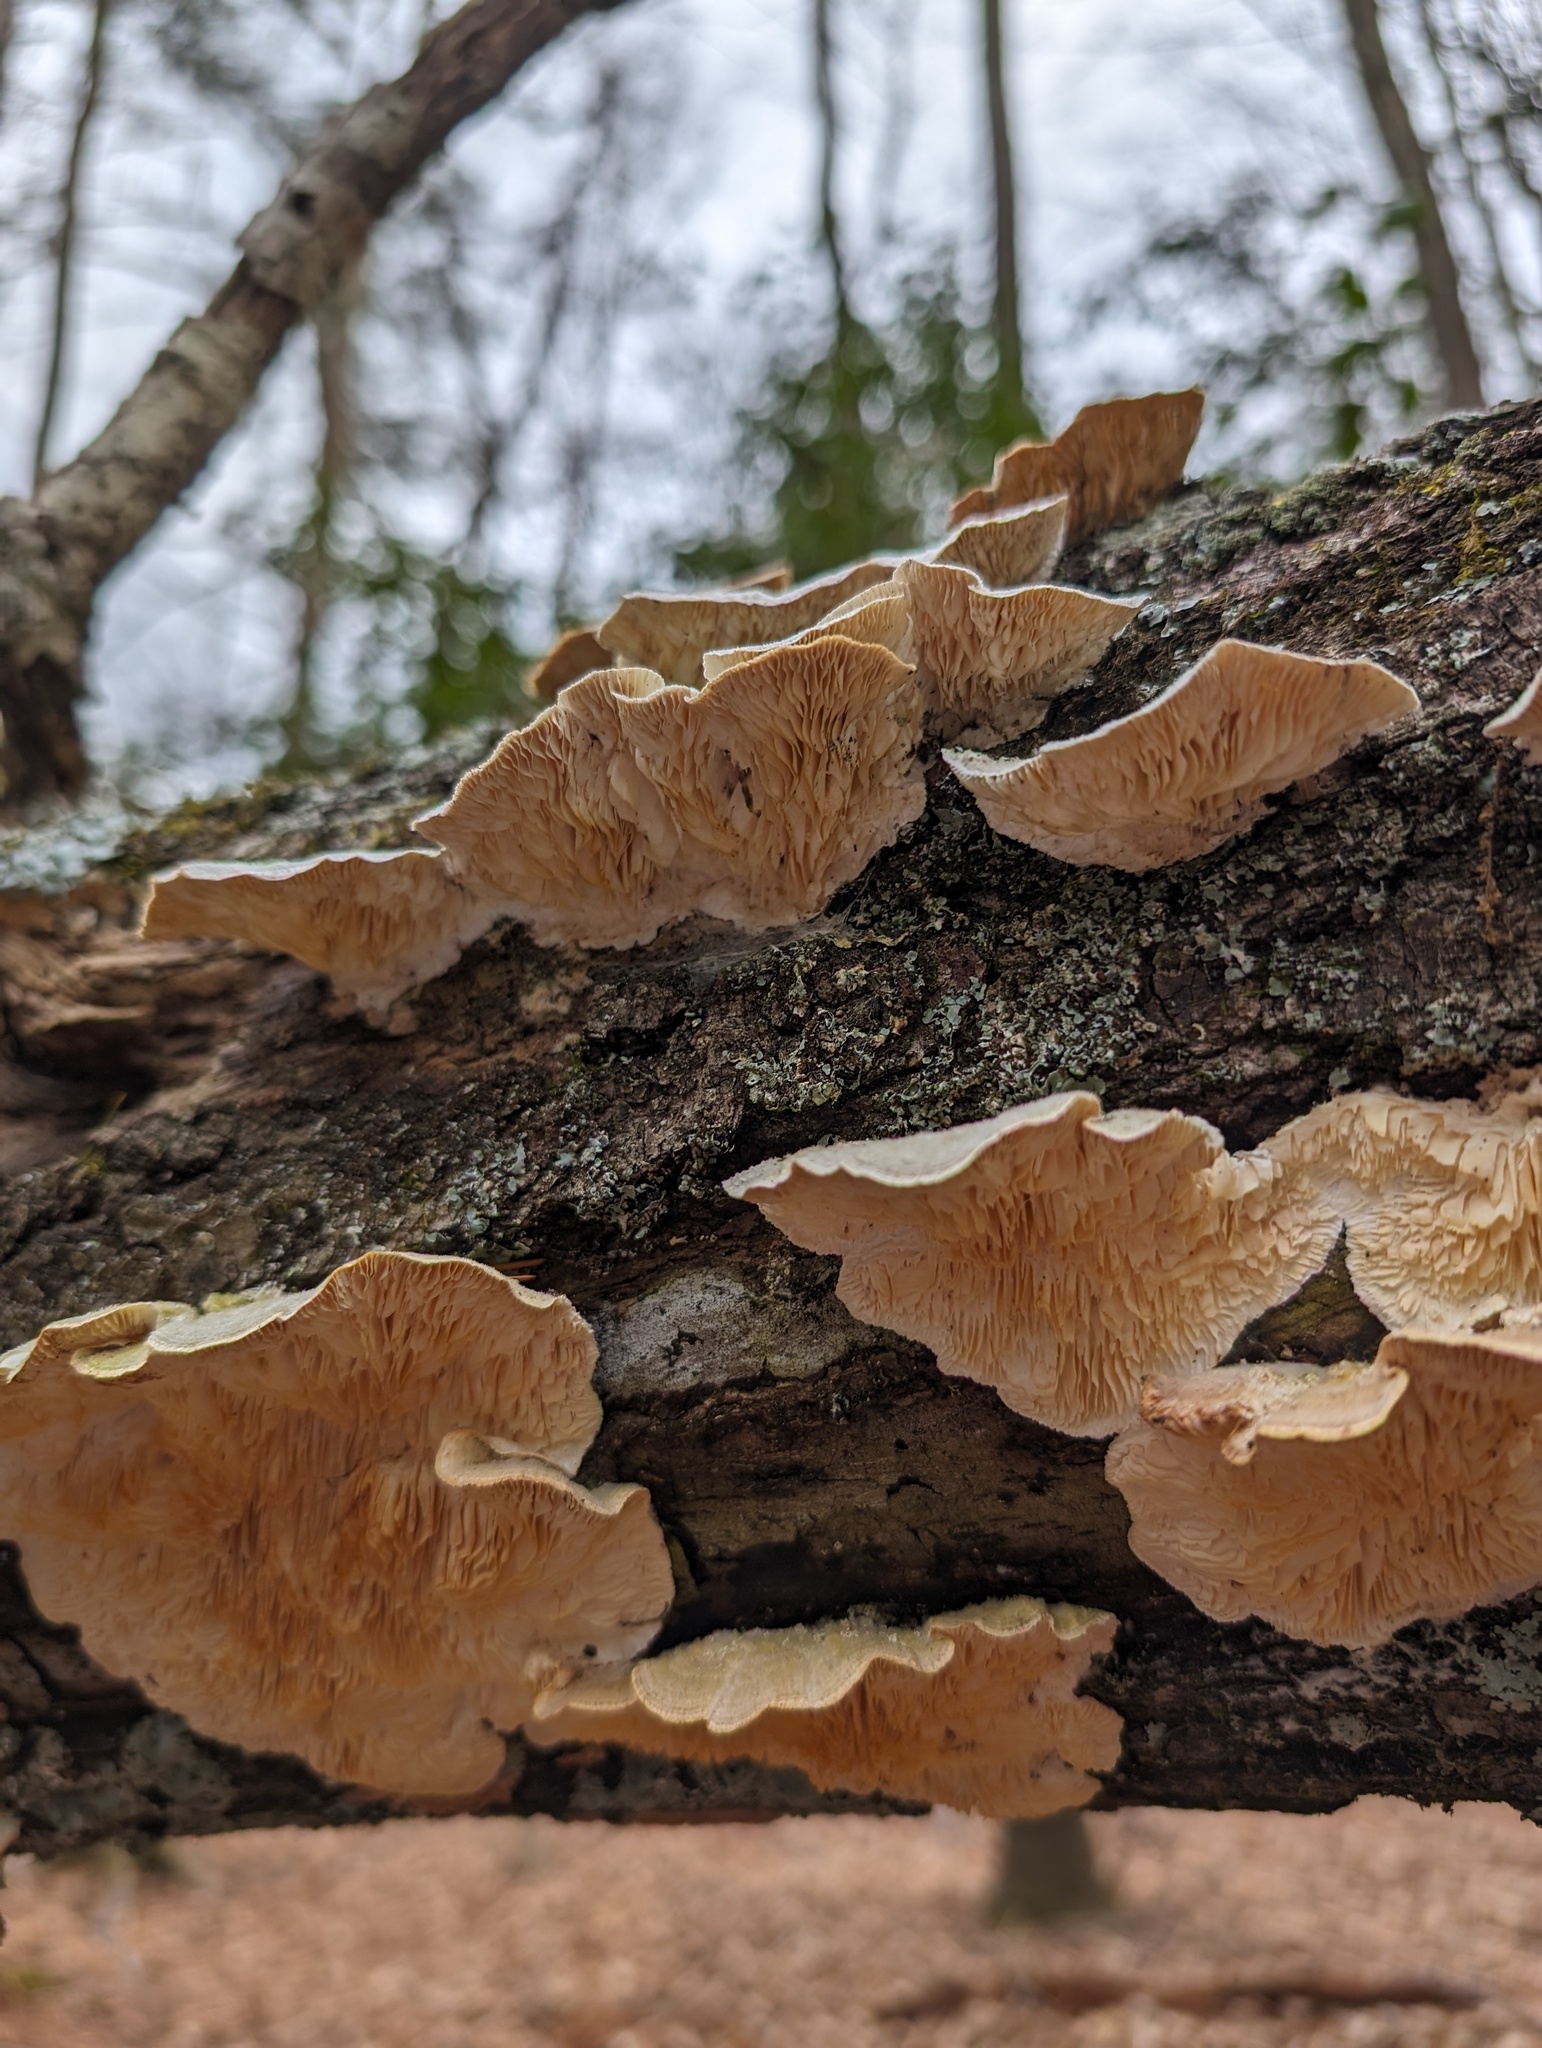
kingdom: Fungi
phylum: Basidiomycota
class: Agaricomycetes
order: Polyporales
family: Polyporaceae
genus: Lenzites
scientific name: Lenzites betulinus
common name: Birch mazegill
